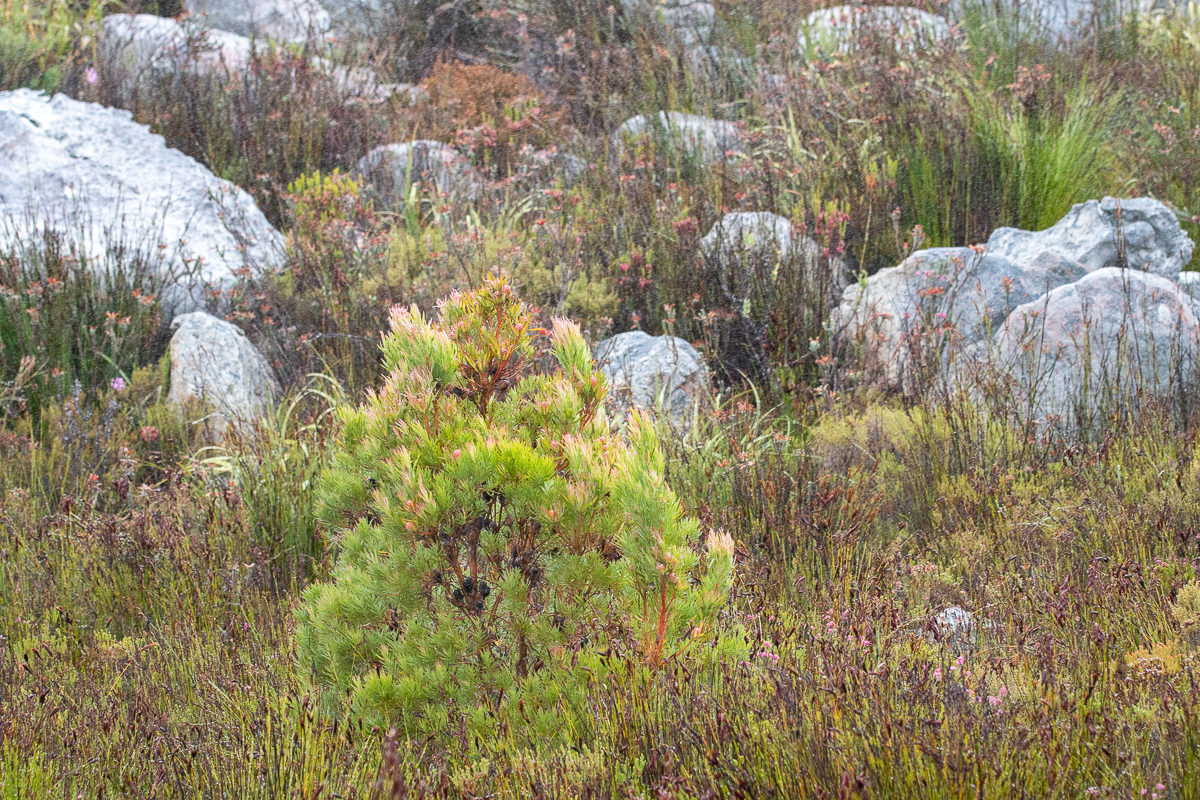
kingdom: Plantae
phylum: Tracheophyta
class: Magnoliopsida
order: Proteales
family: Proteaceae
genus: Leucadendron
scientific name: Leucadendron xanthoconus
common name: Sickle-leaf conebush
